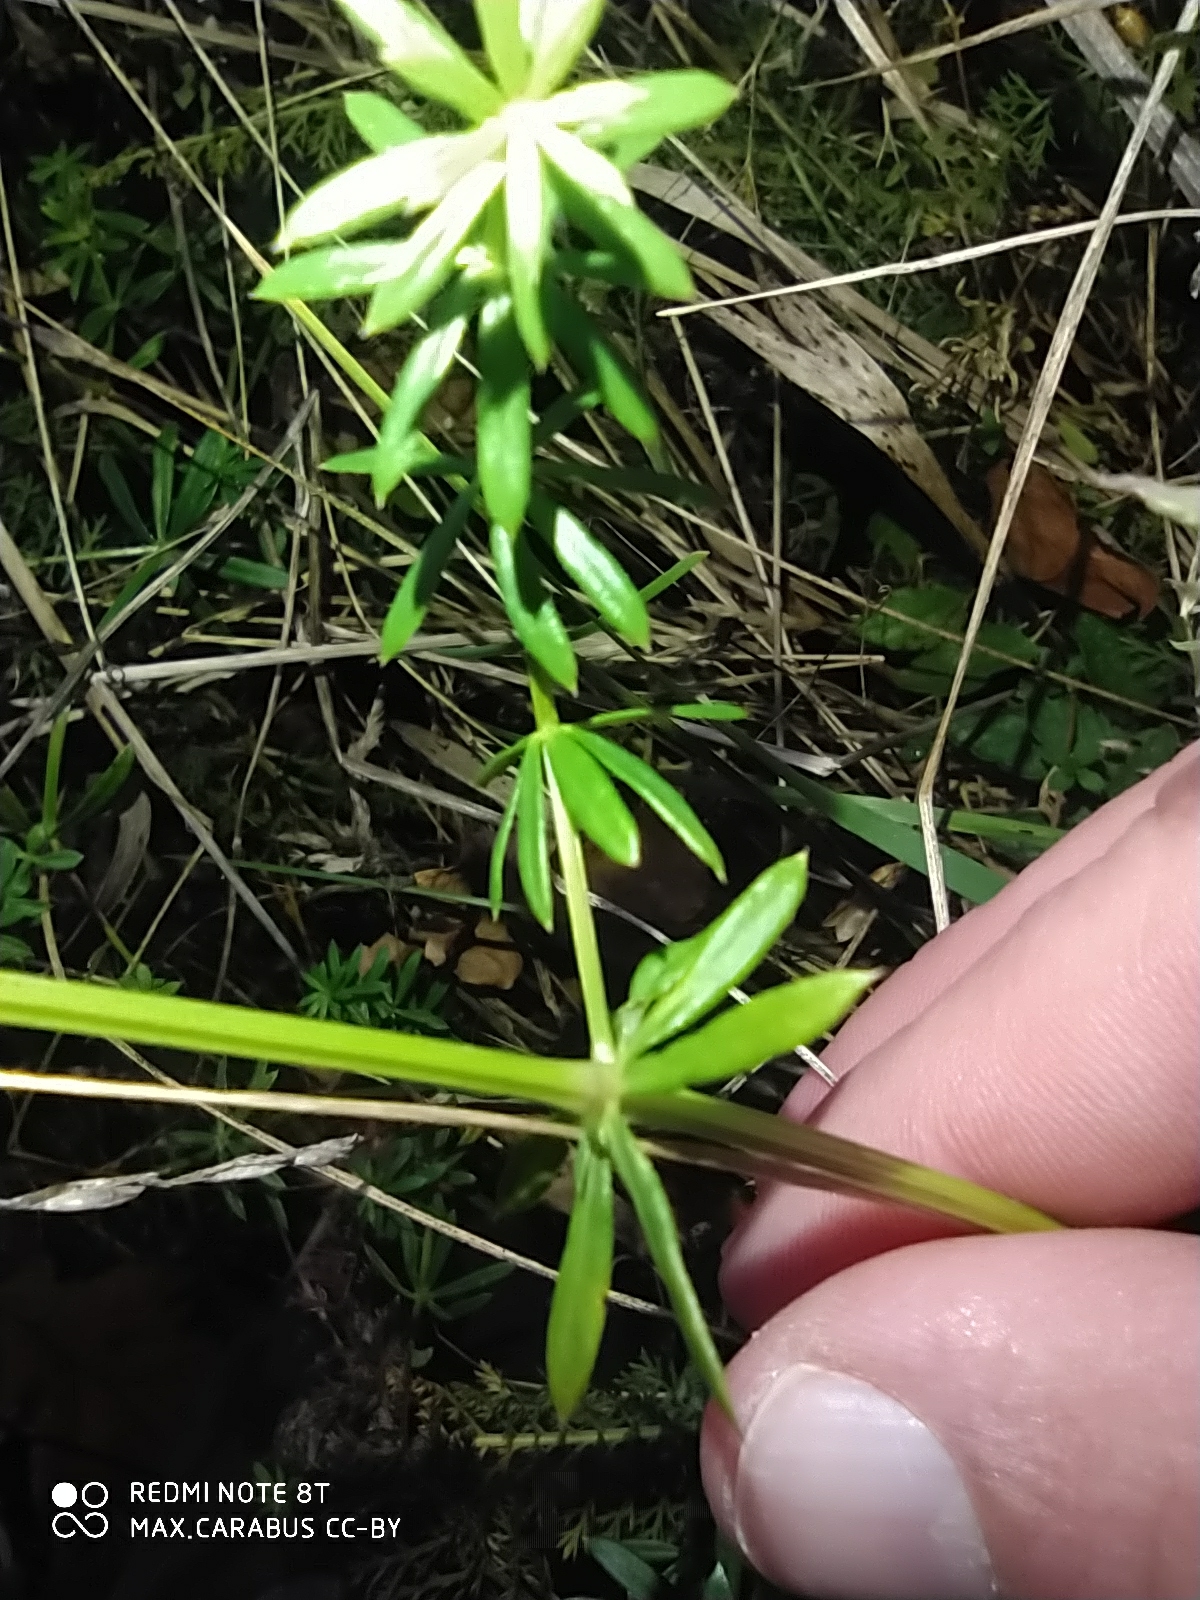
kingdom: Plantae
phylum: Tracheophyta
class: Magnoliopsida
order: Gentianales
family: Rubiaceae
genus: Galium
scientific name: Galium mollugo
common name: Hedge bedstraw
